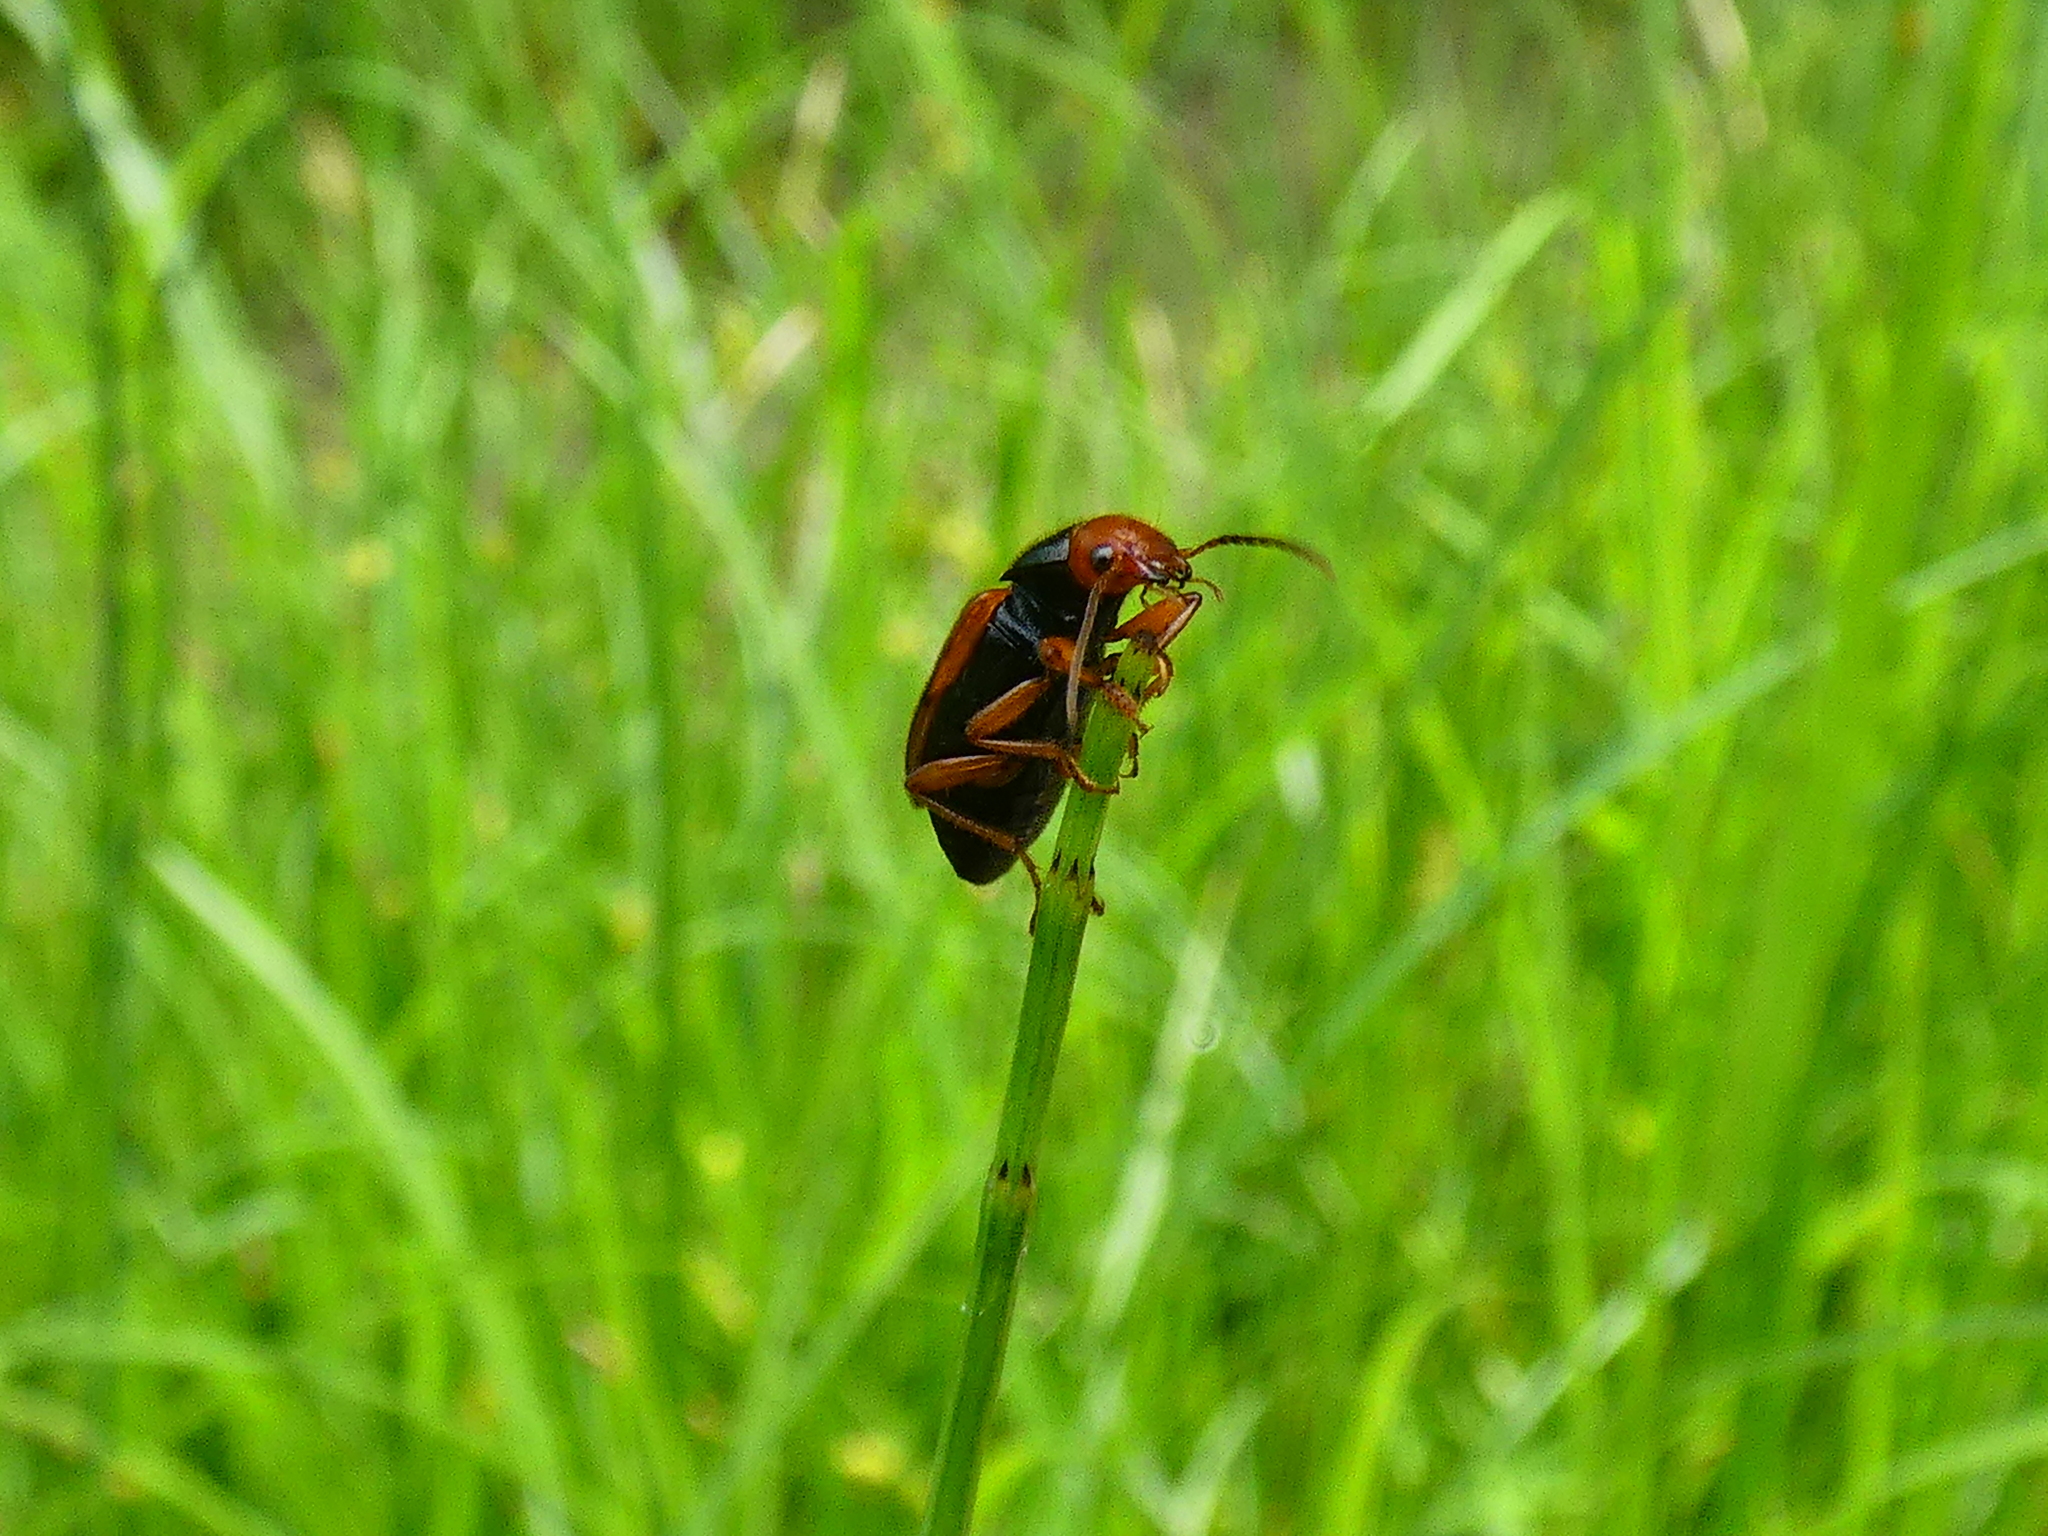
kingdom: Animalia
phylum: Arthropoda
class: Insecta
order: Coleoptera
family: Carabidae
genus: Diachromus
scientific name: Diachromus germanus
